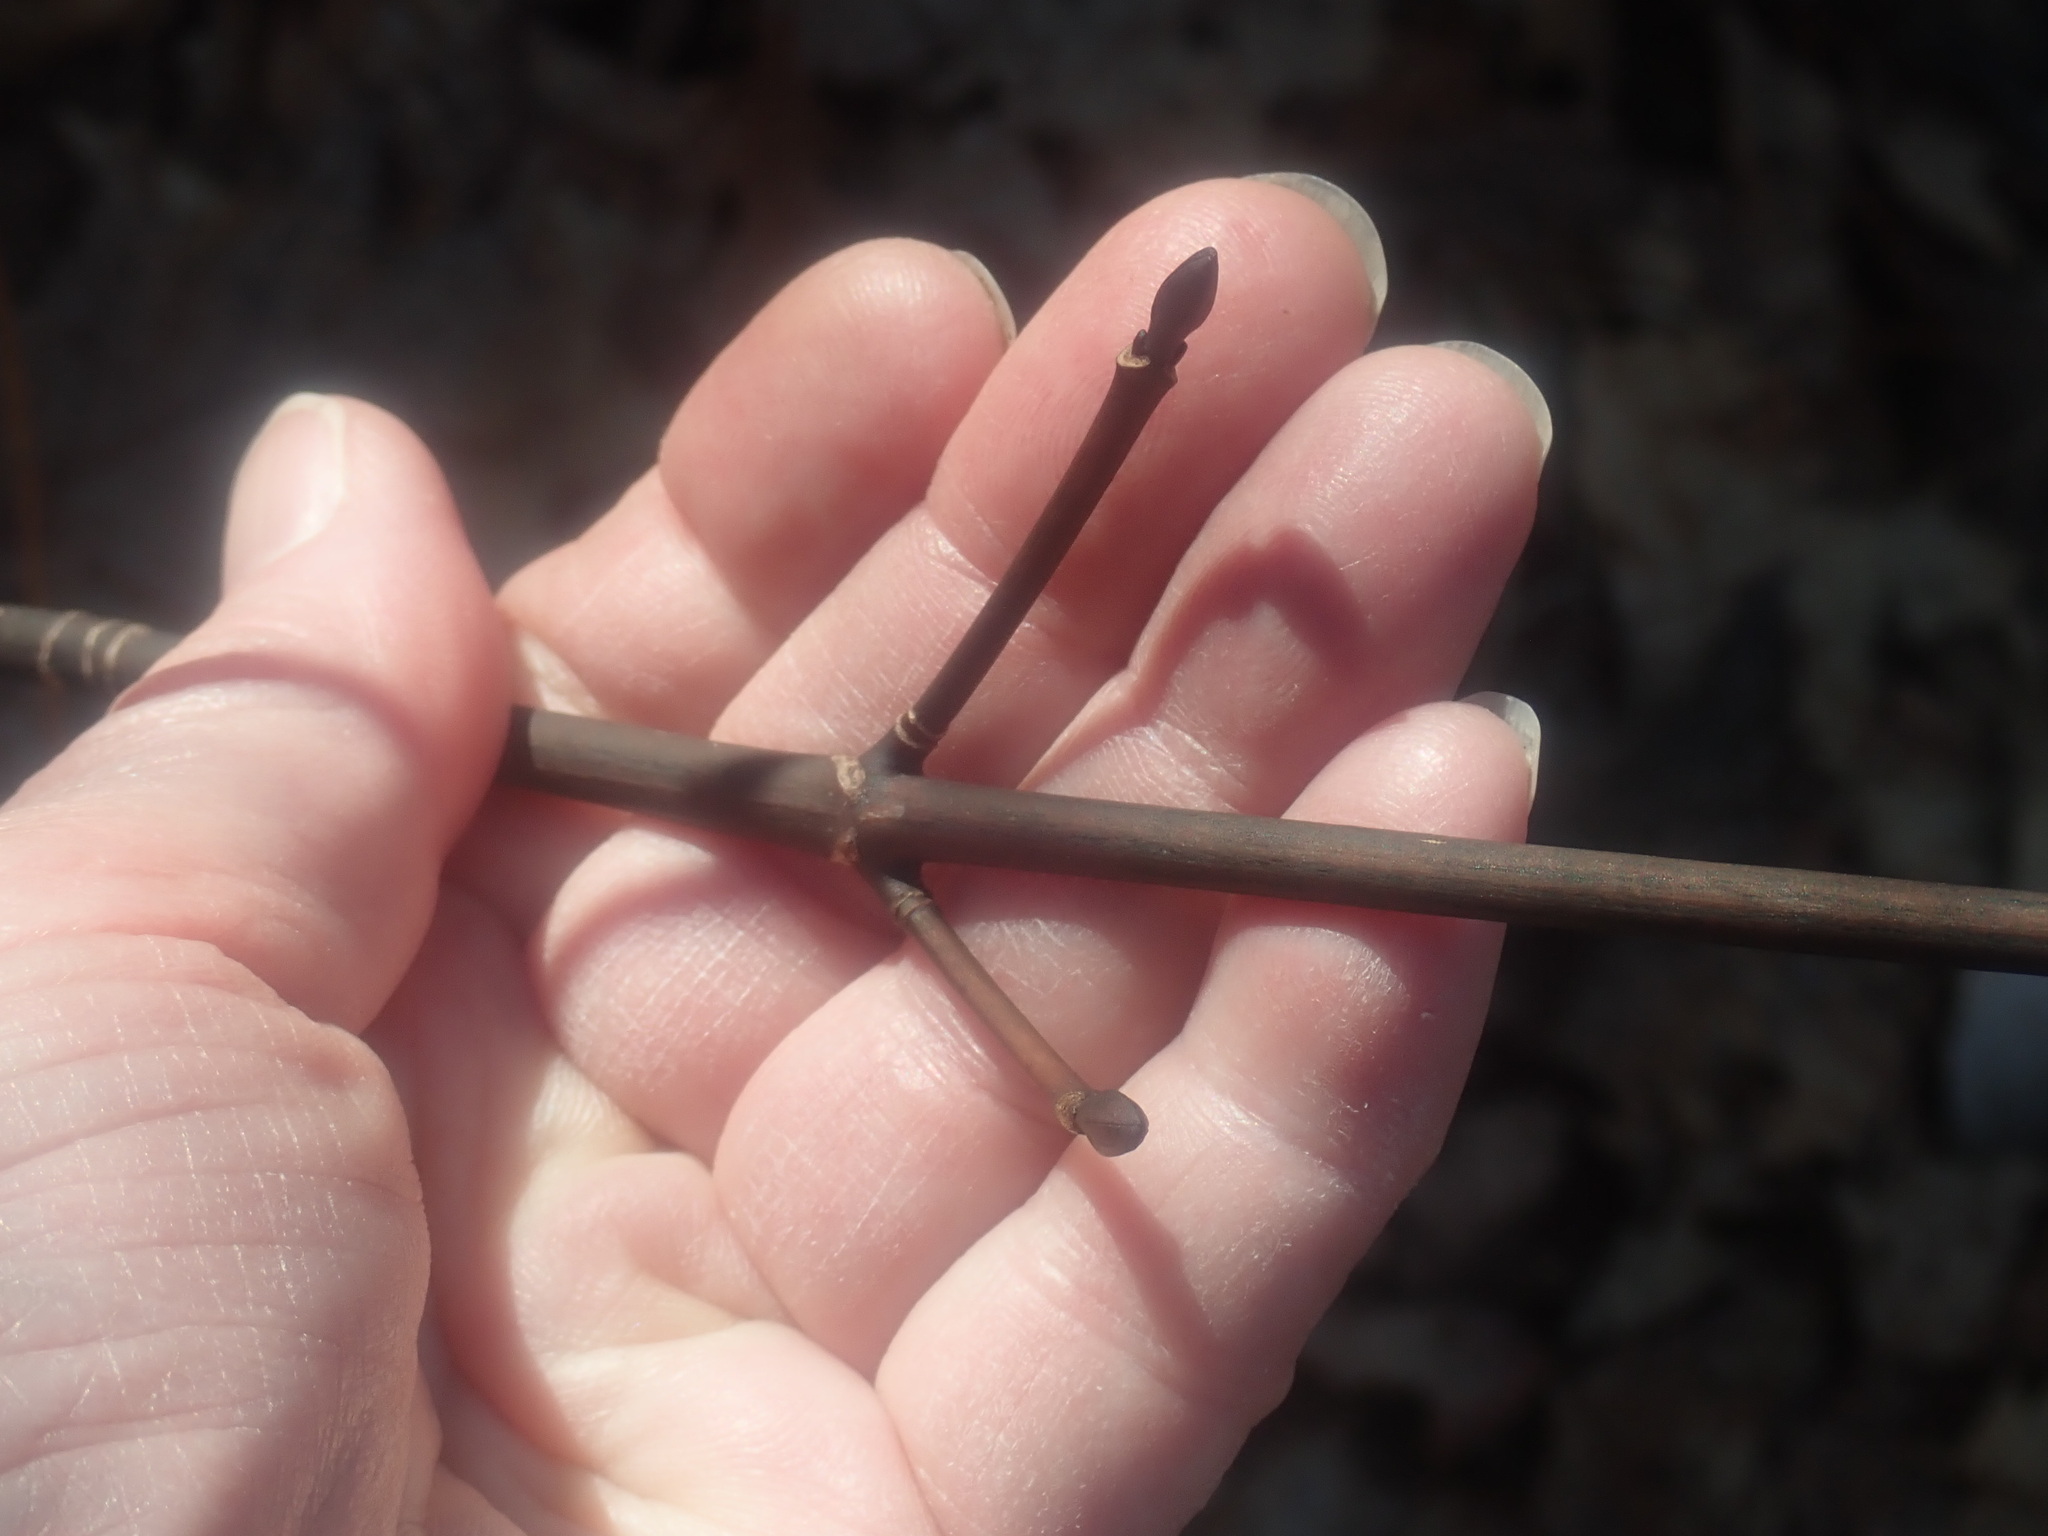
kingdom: Plantae
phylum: Tracheophyta
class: Magnoliopsida
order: Sapindales
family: Sapindaceae
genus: Acer
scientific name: Acer pensylvanicum
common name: Moosewood
